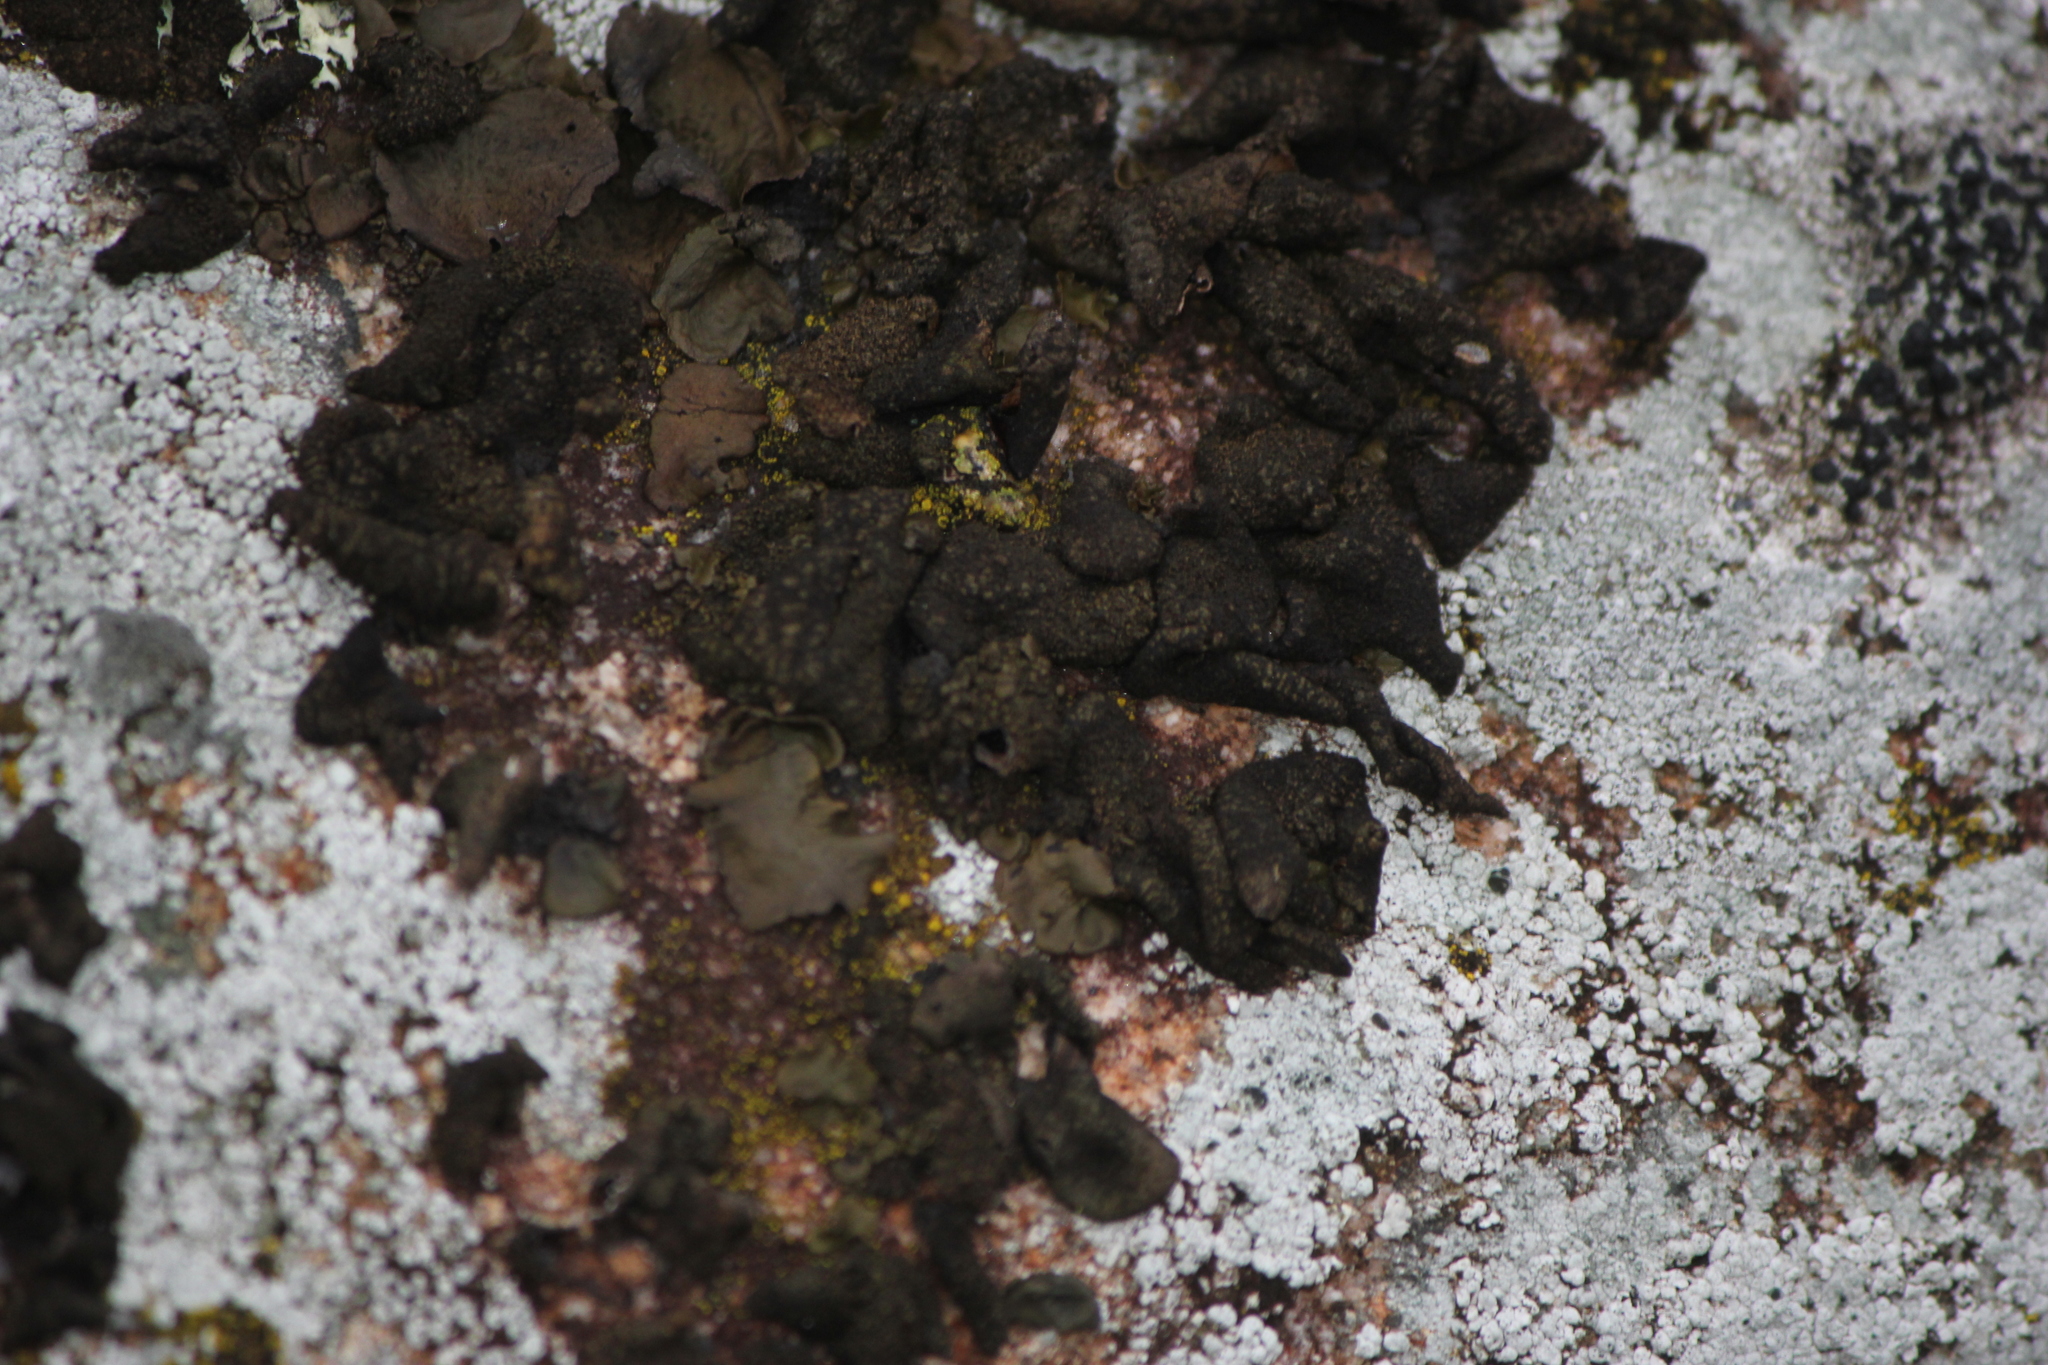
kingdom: Fungi
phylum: Ascomycota
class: Lecanoromycetes
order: Umbilicariales
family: Umbilicariaceae
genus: Umbilicaria
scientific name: Umbilicaria deusta
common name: Peppered rock tripe
